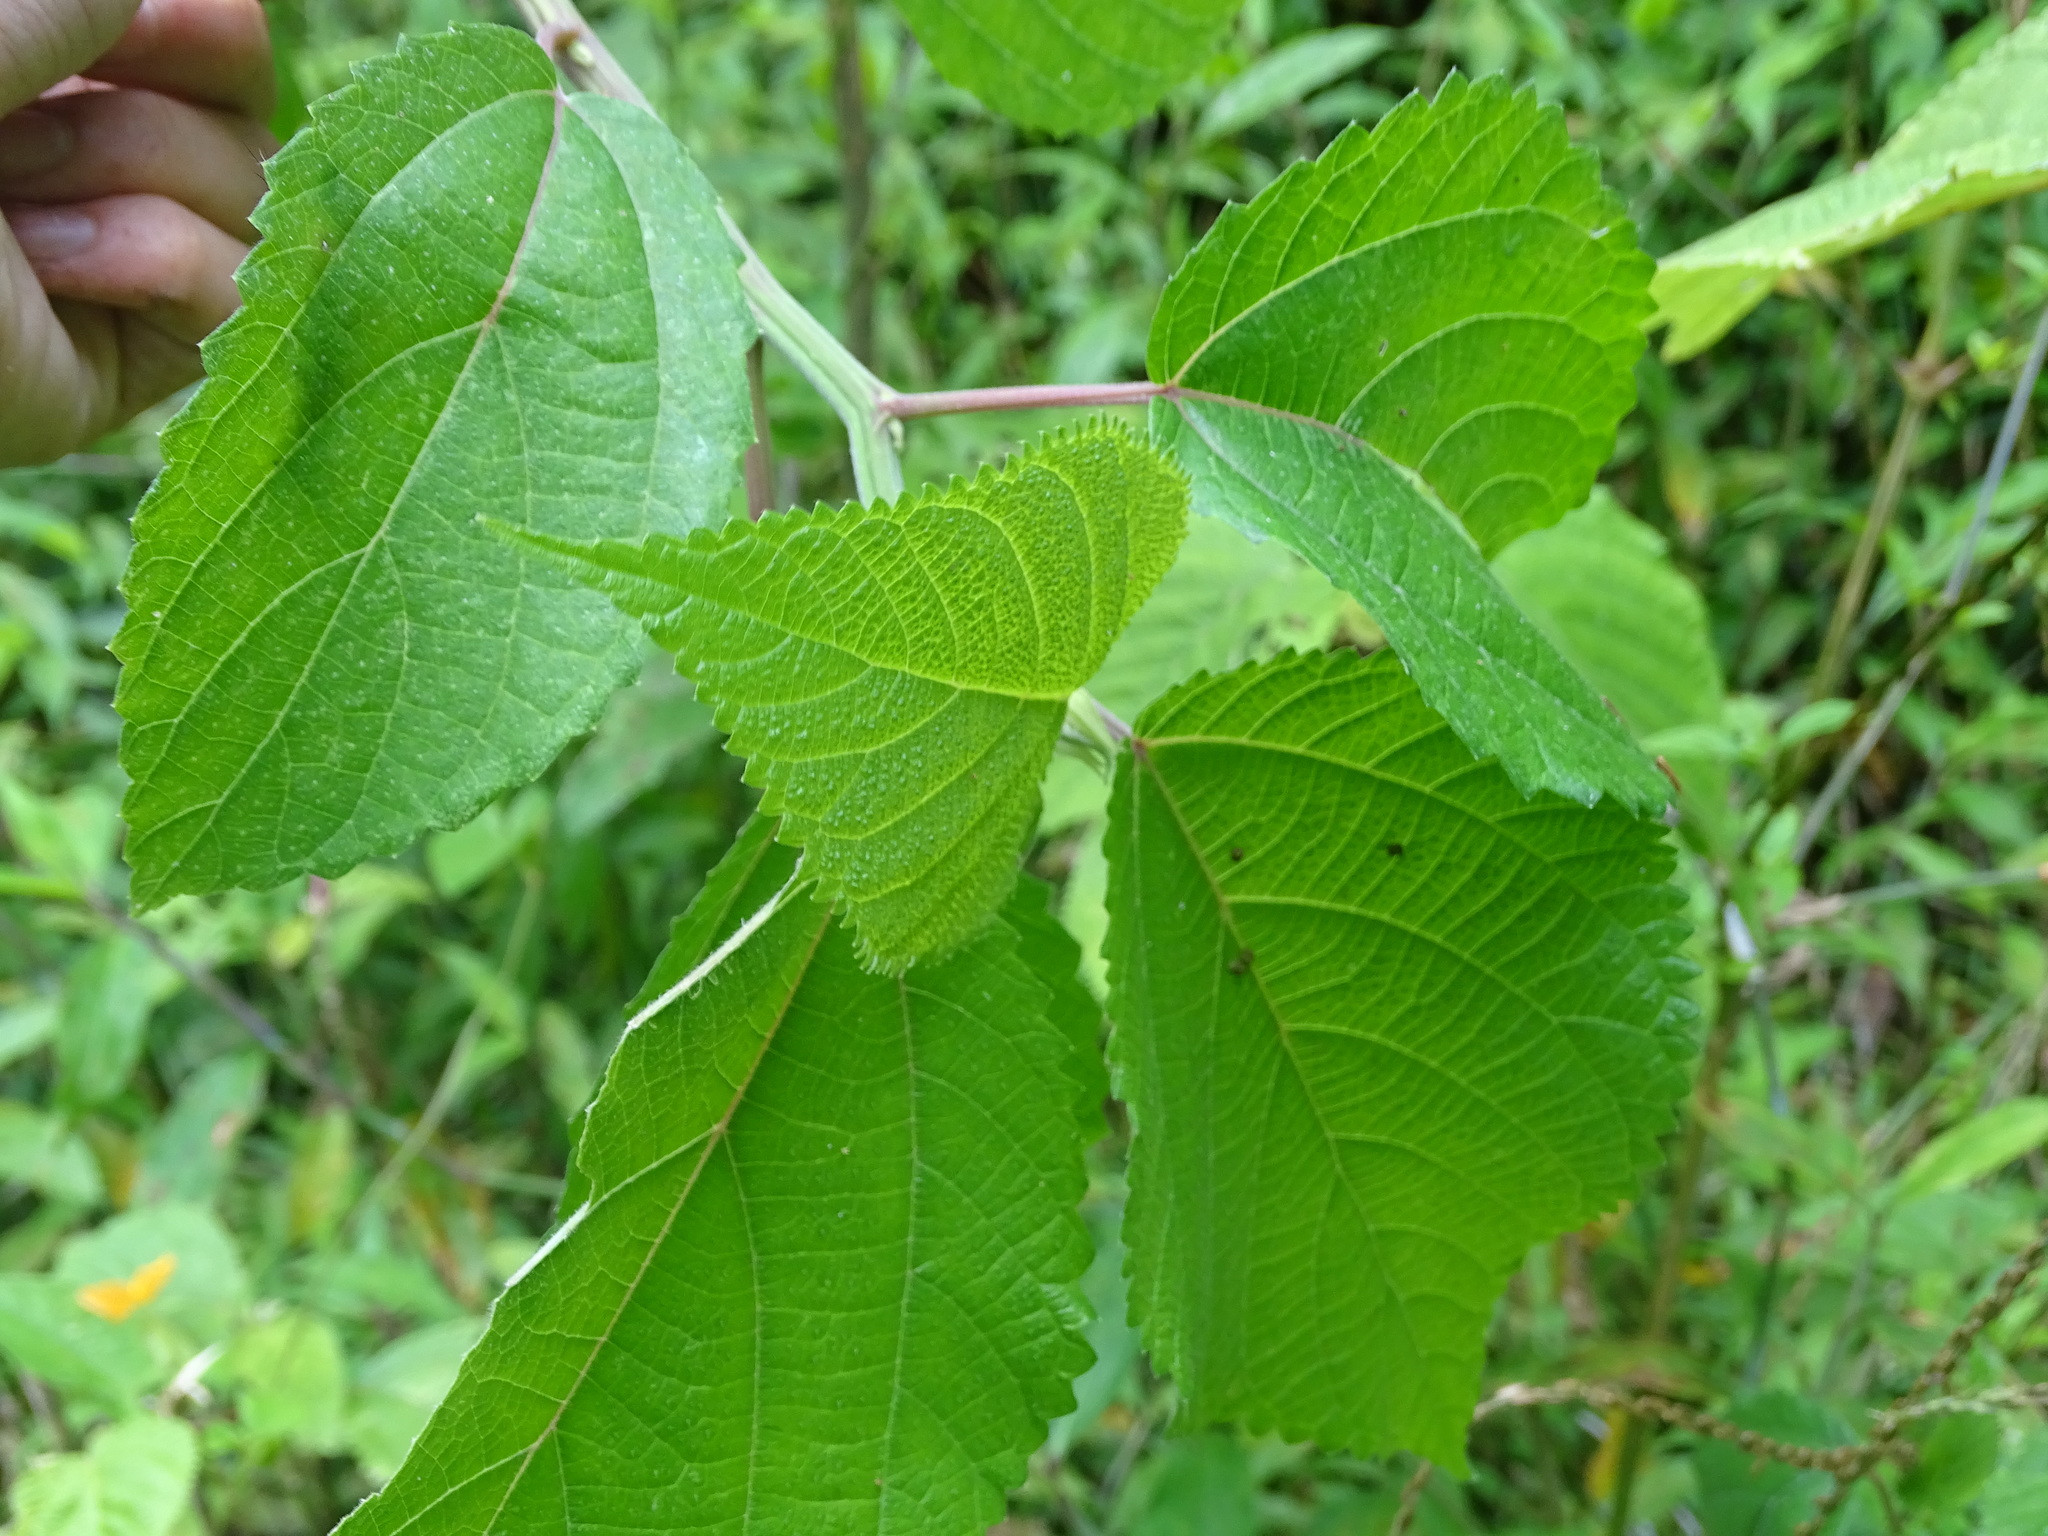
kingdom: Plantae
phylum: Tracheophyta
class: Magnoliopsida
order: Rosales
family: Urticaceae
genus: Laportea
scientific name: Laportea aestuans
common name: West indian woodnettle
